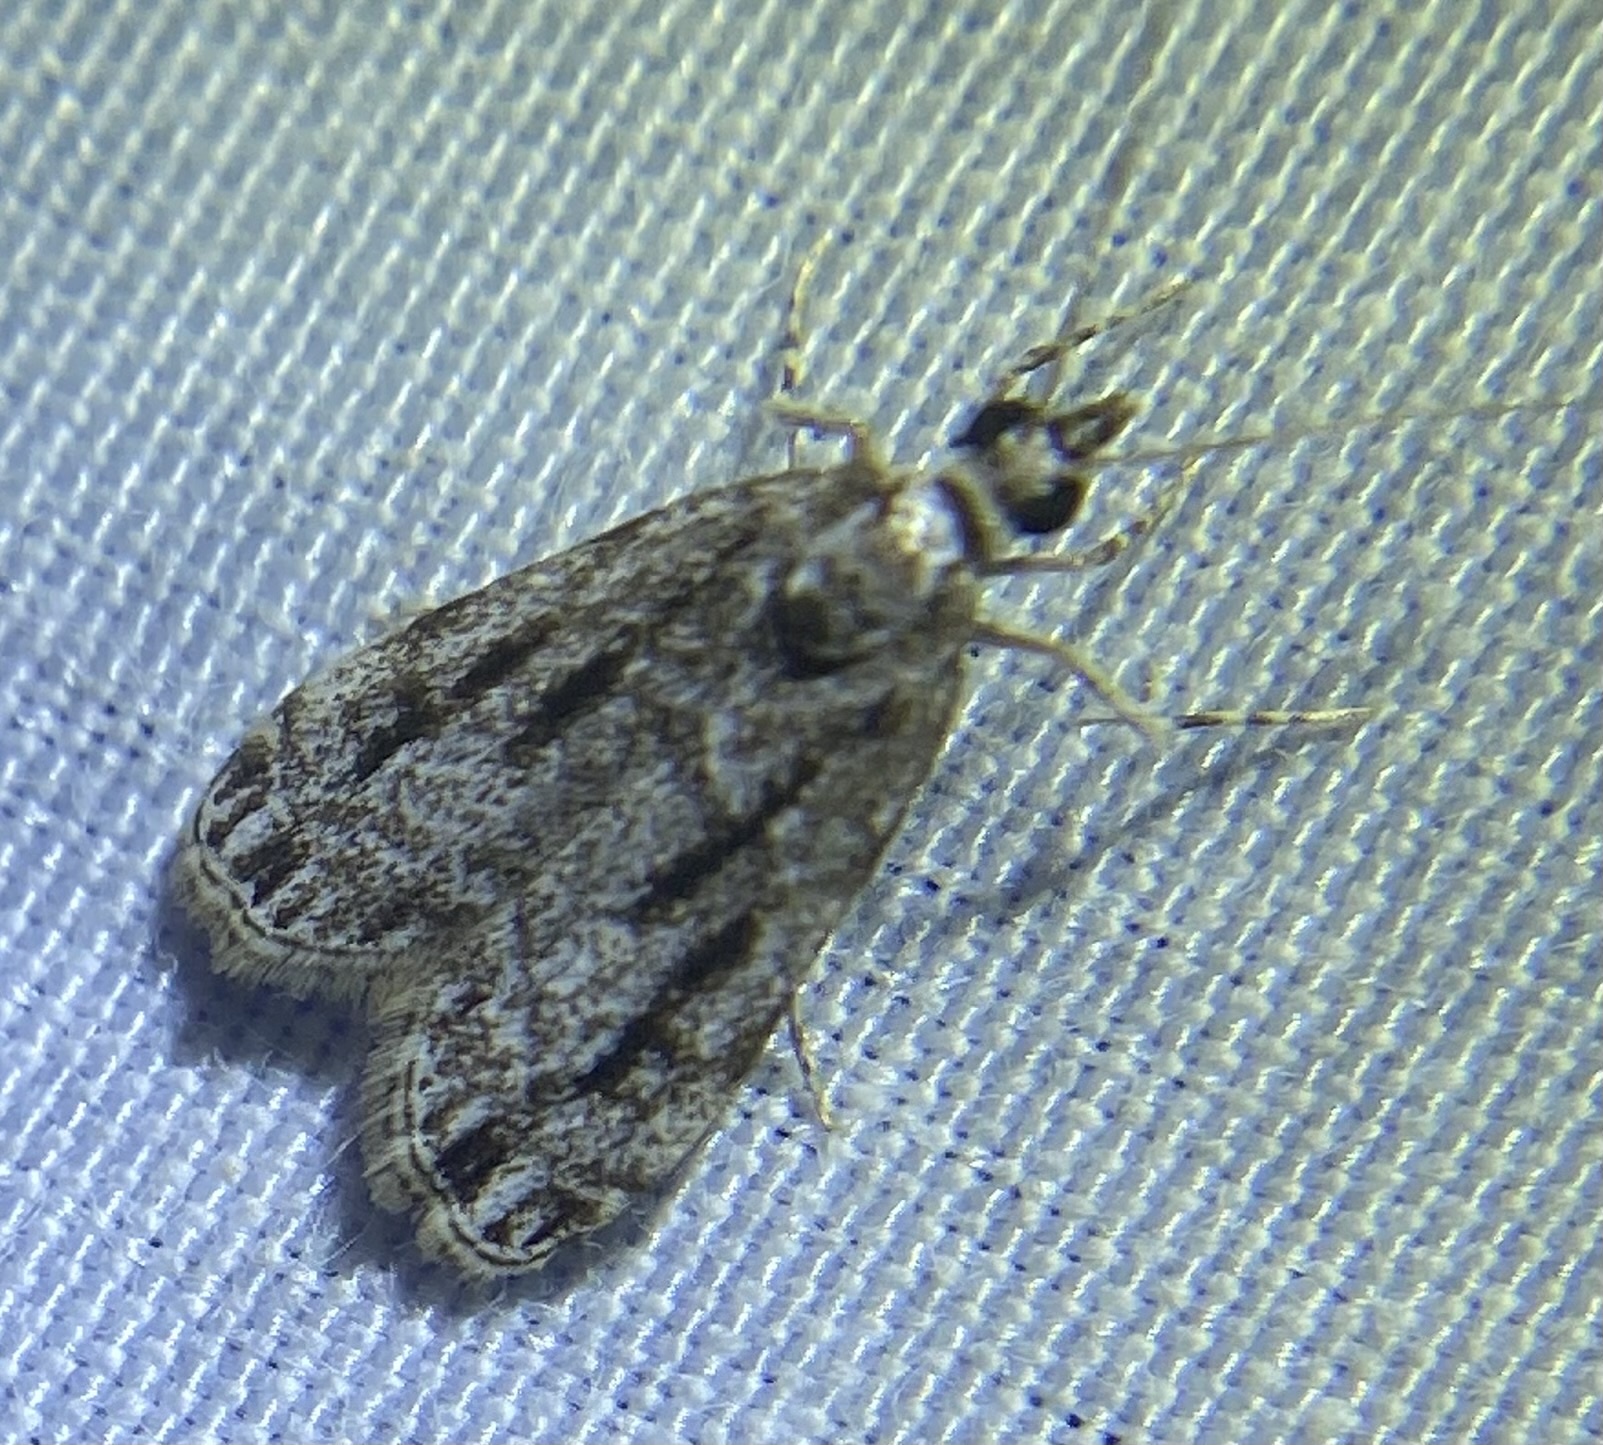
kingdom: Animalia
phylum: Arthropoda
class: Insecta
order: Lepidoptera
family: Crambidae
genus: Eudonia
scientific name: Eudonia strigalis
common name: Striped eudonia moth
